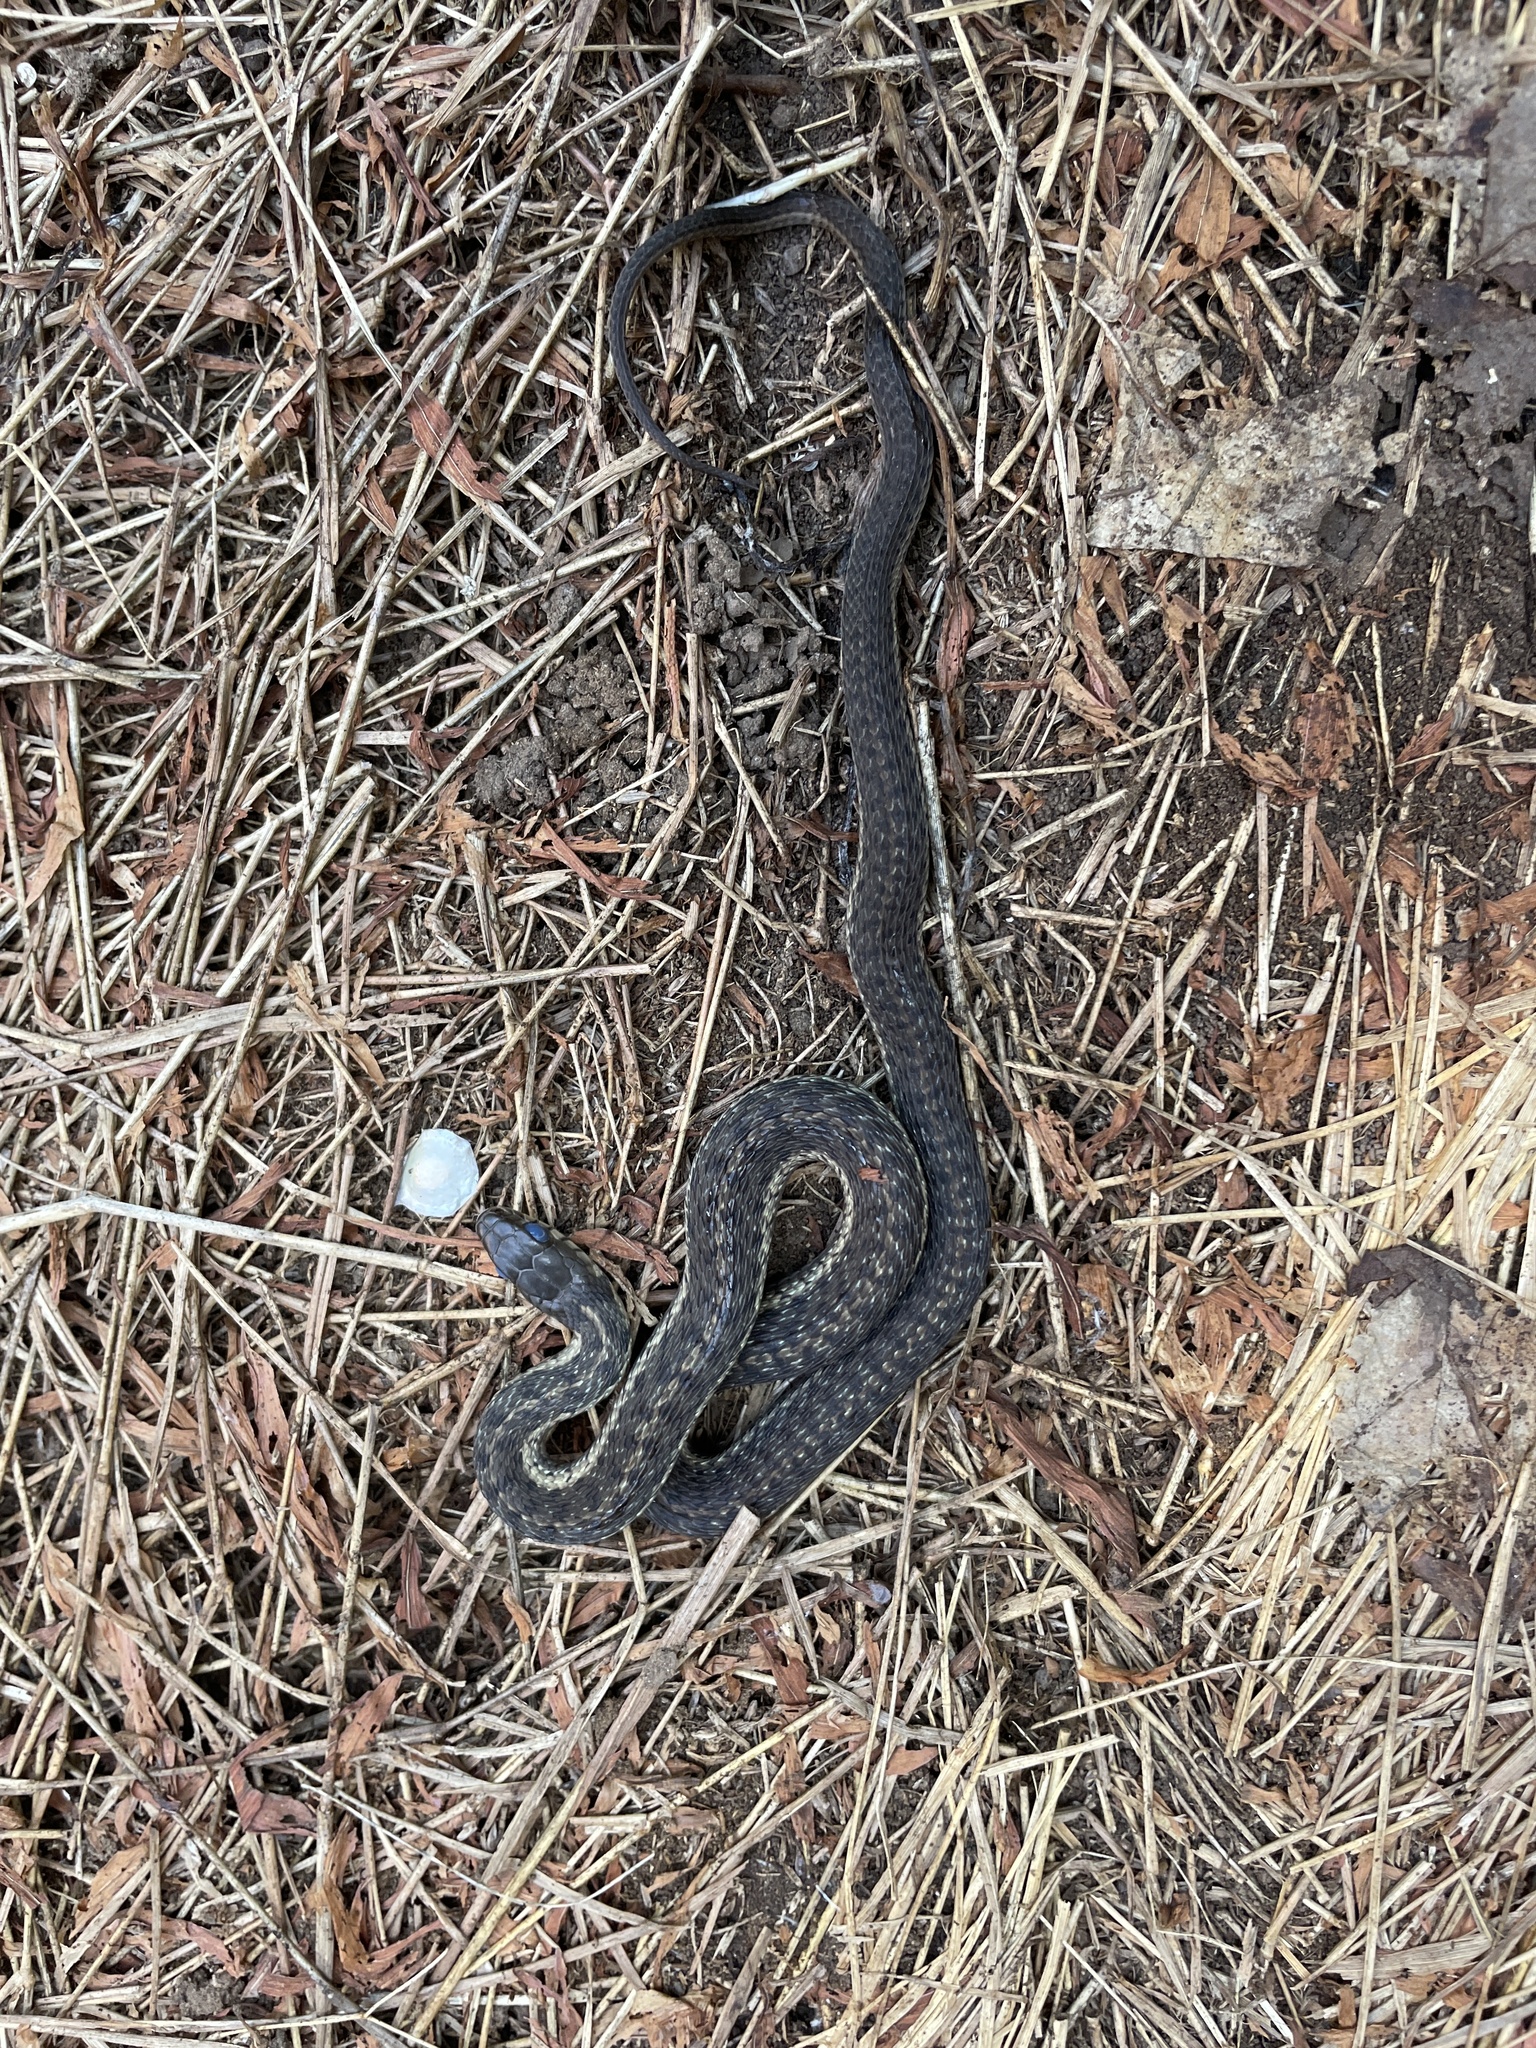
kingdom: Animalia
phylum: Chordata
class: Squamata
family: Colubridae
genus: Thamnophis
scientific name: Thamnophis sirtalis
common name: Common garter snake
